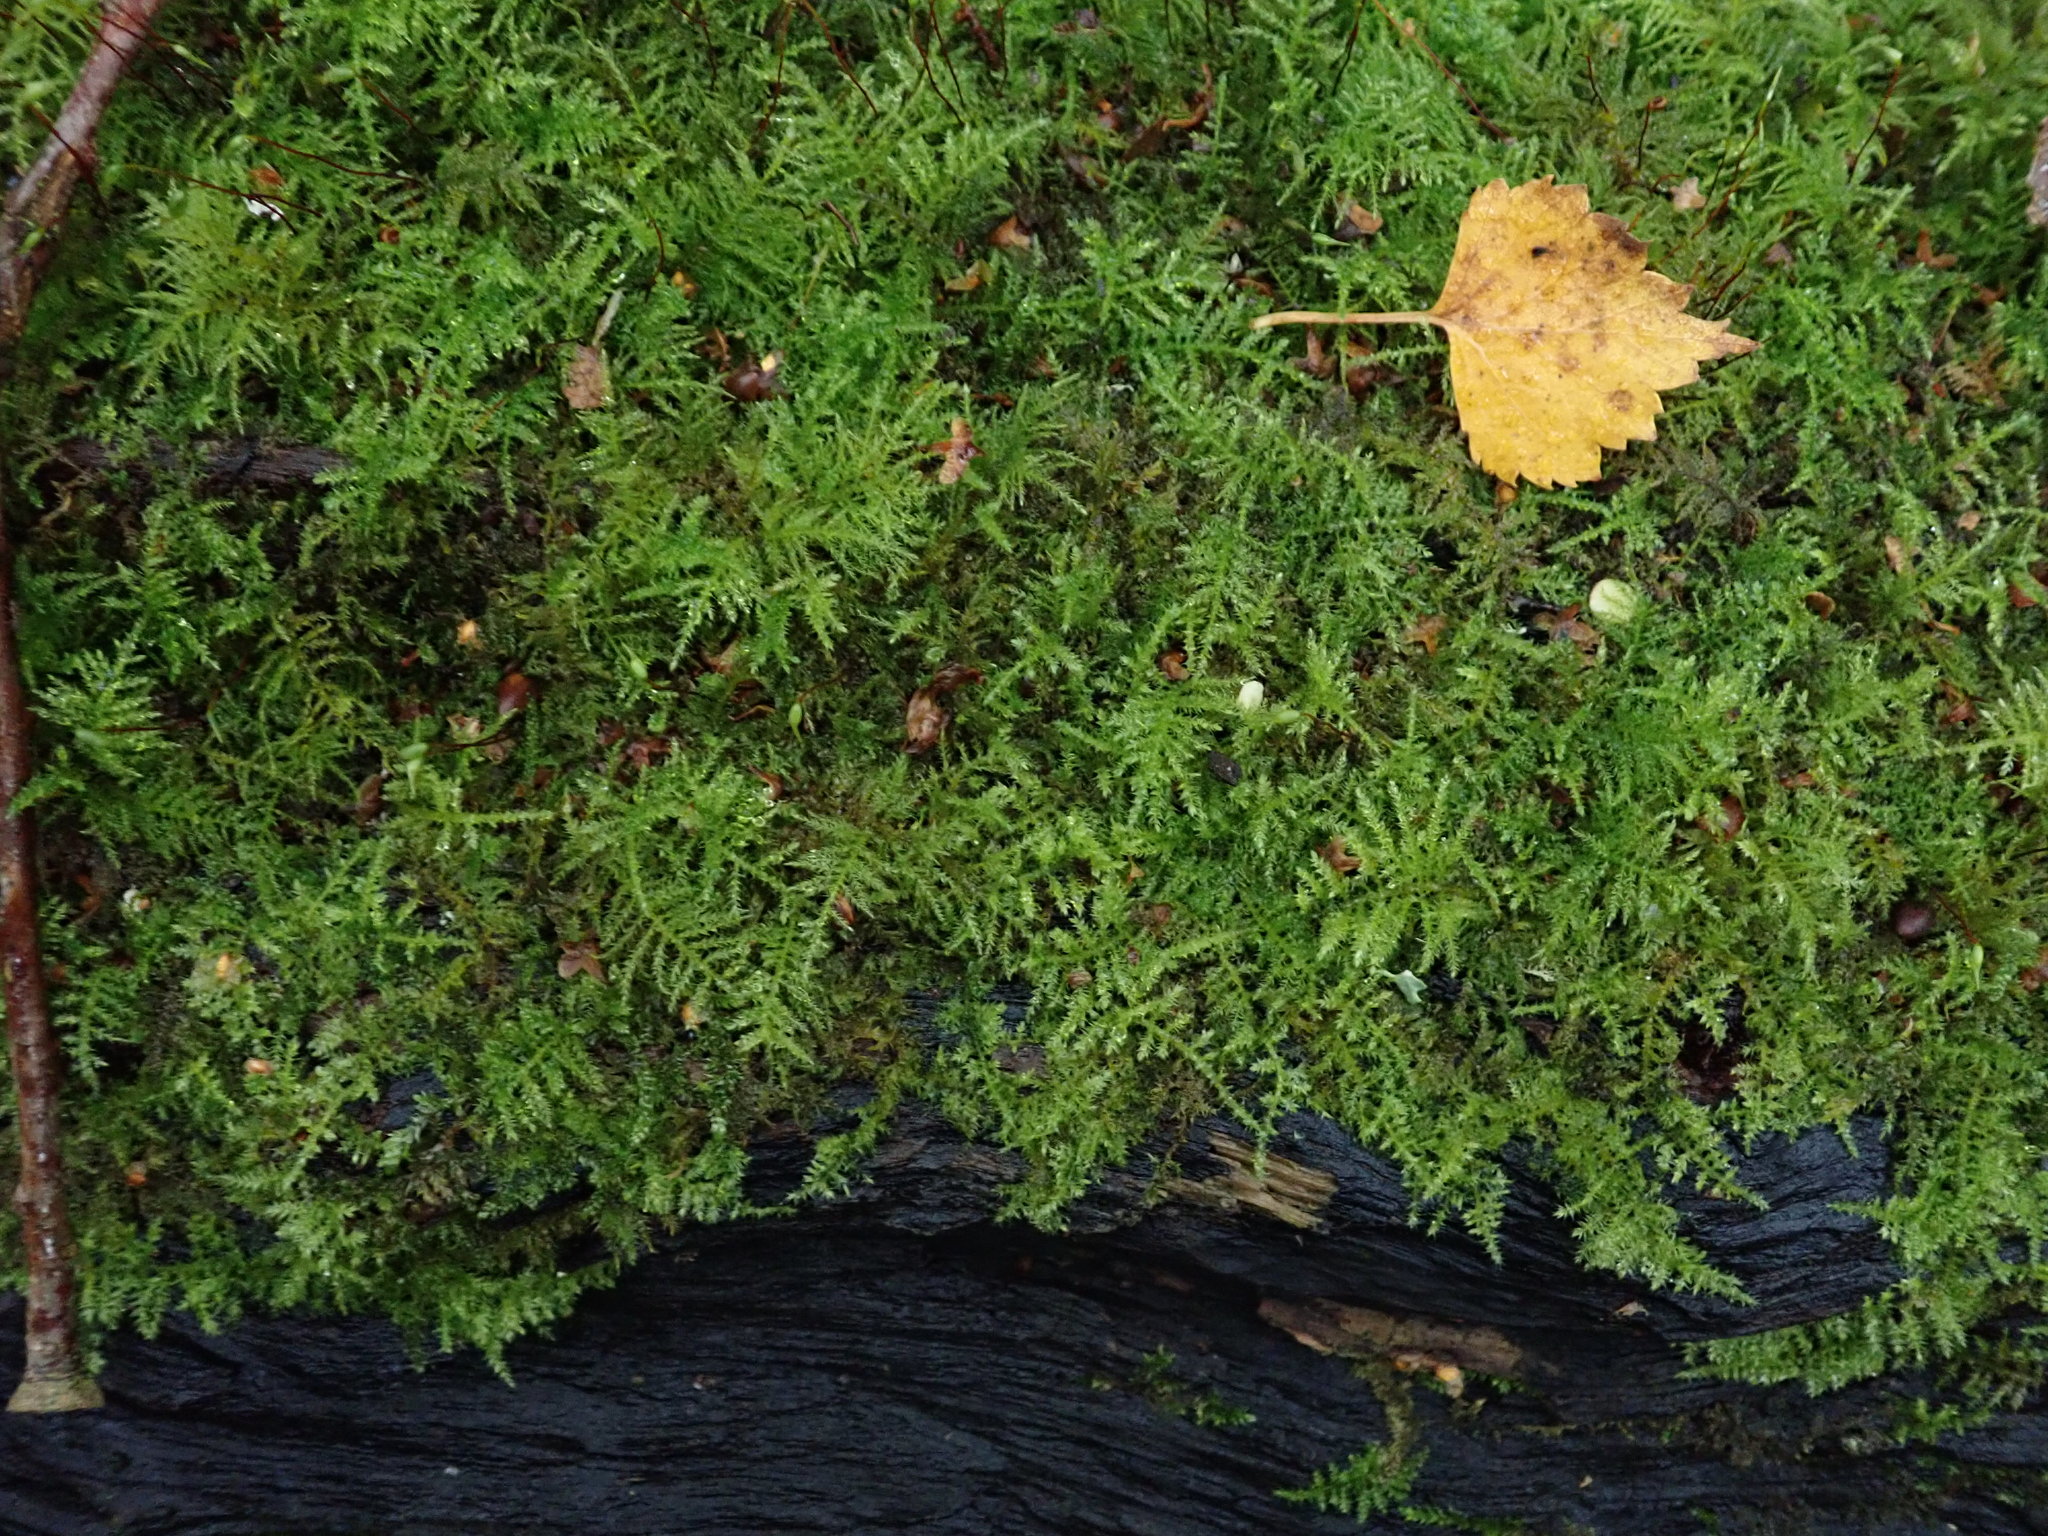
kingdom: Plantae
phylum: Bryophyta
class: Bryopsida
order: Hypnales
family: Brachytheciaceae
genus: Kindbergia
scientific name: Kindbergia praelonga
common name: Slender beaked moss
